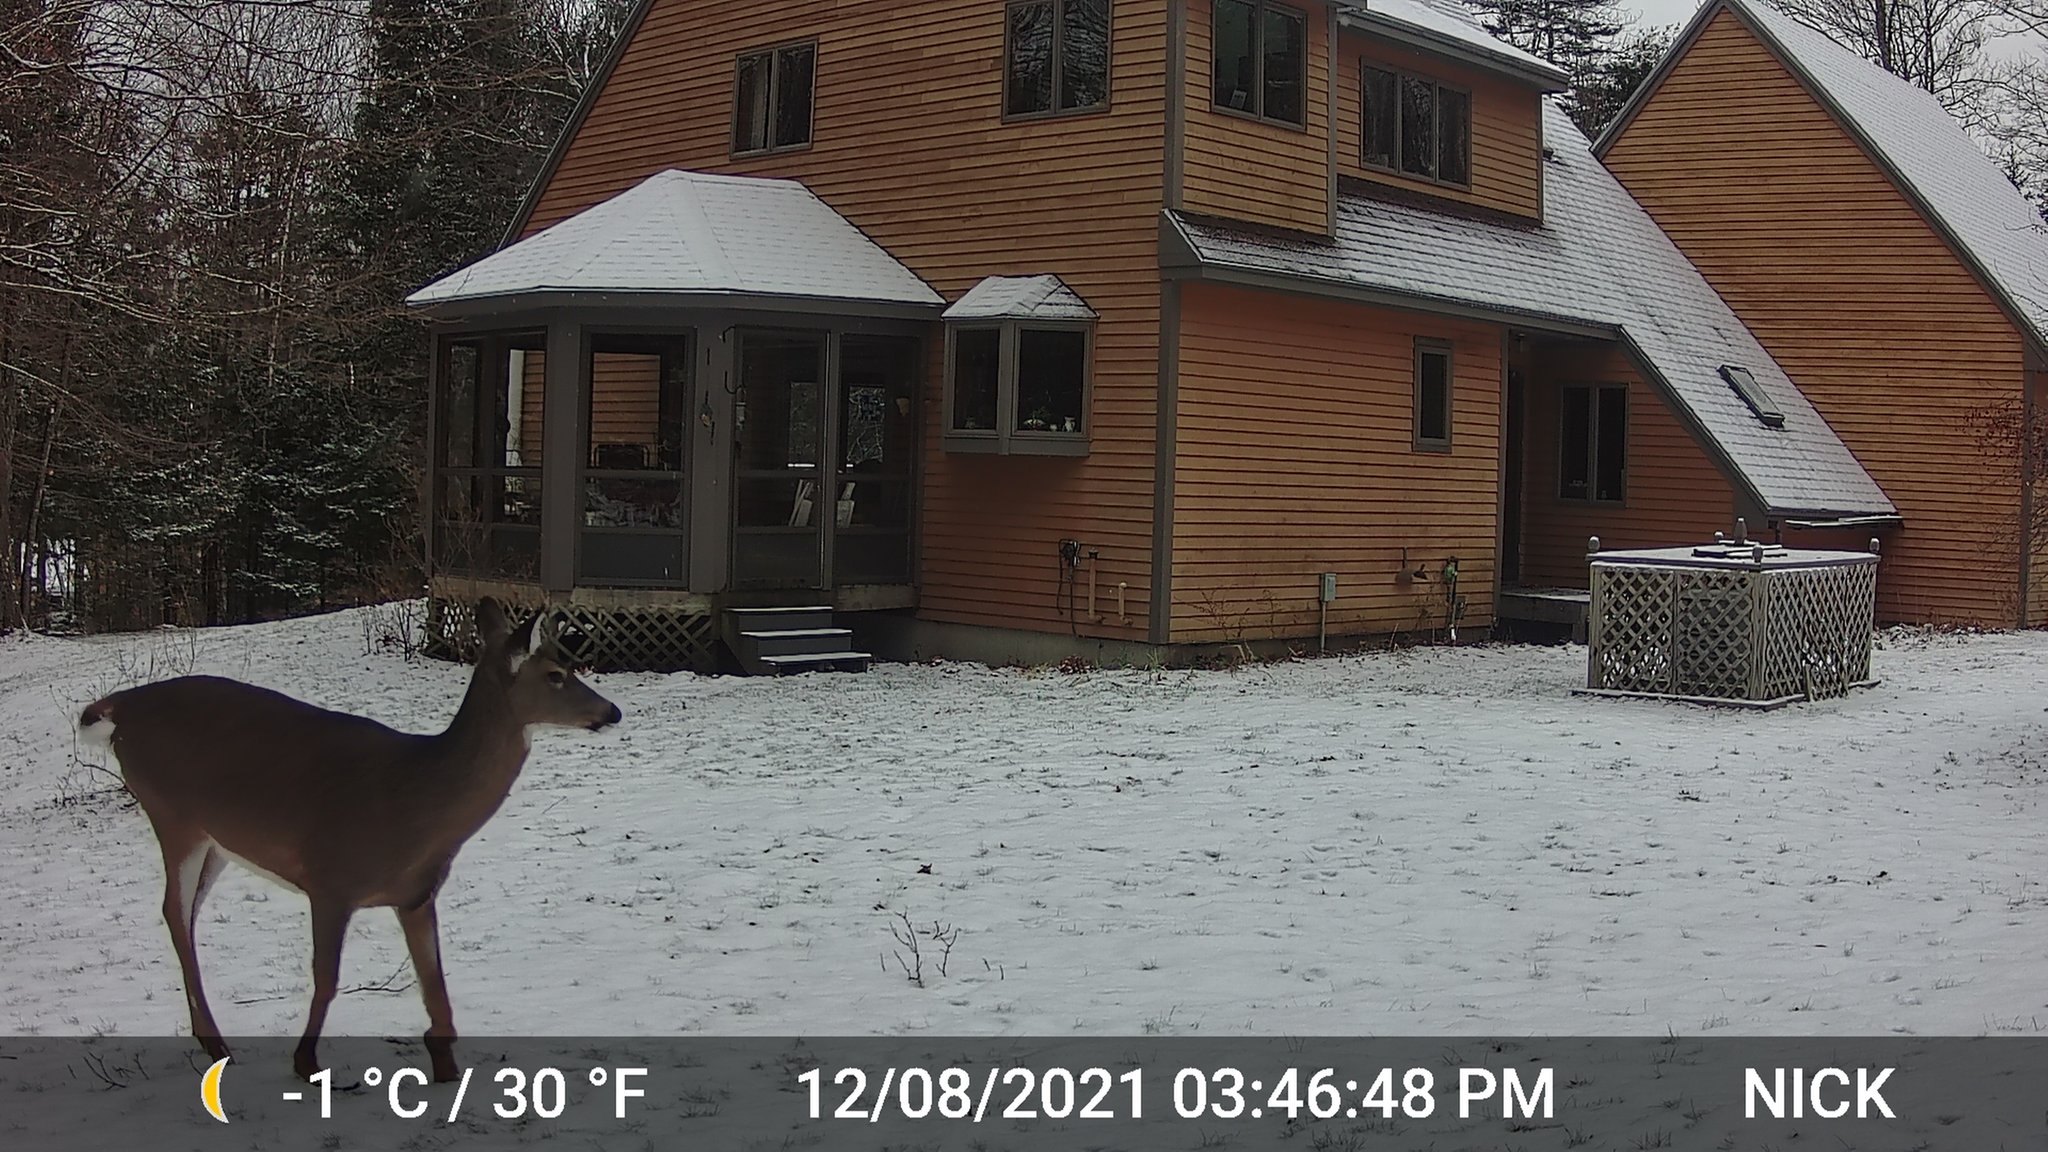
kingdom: Animalia
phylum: Chordata
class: Mammalia
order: Artiodactyla
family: Cervidae
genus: Odocoileus
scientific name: Odocoileus virginianus
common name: White-tailed deer
